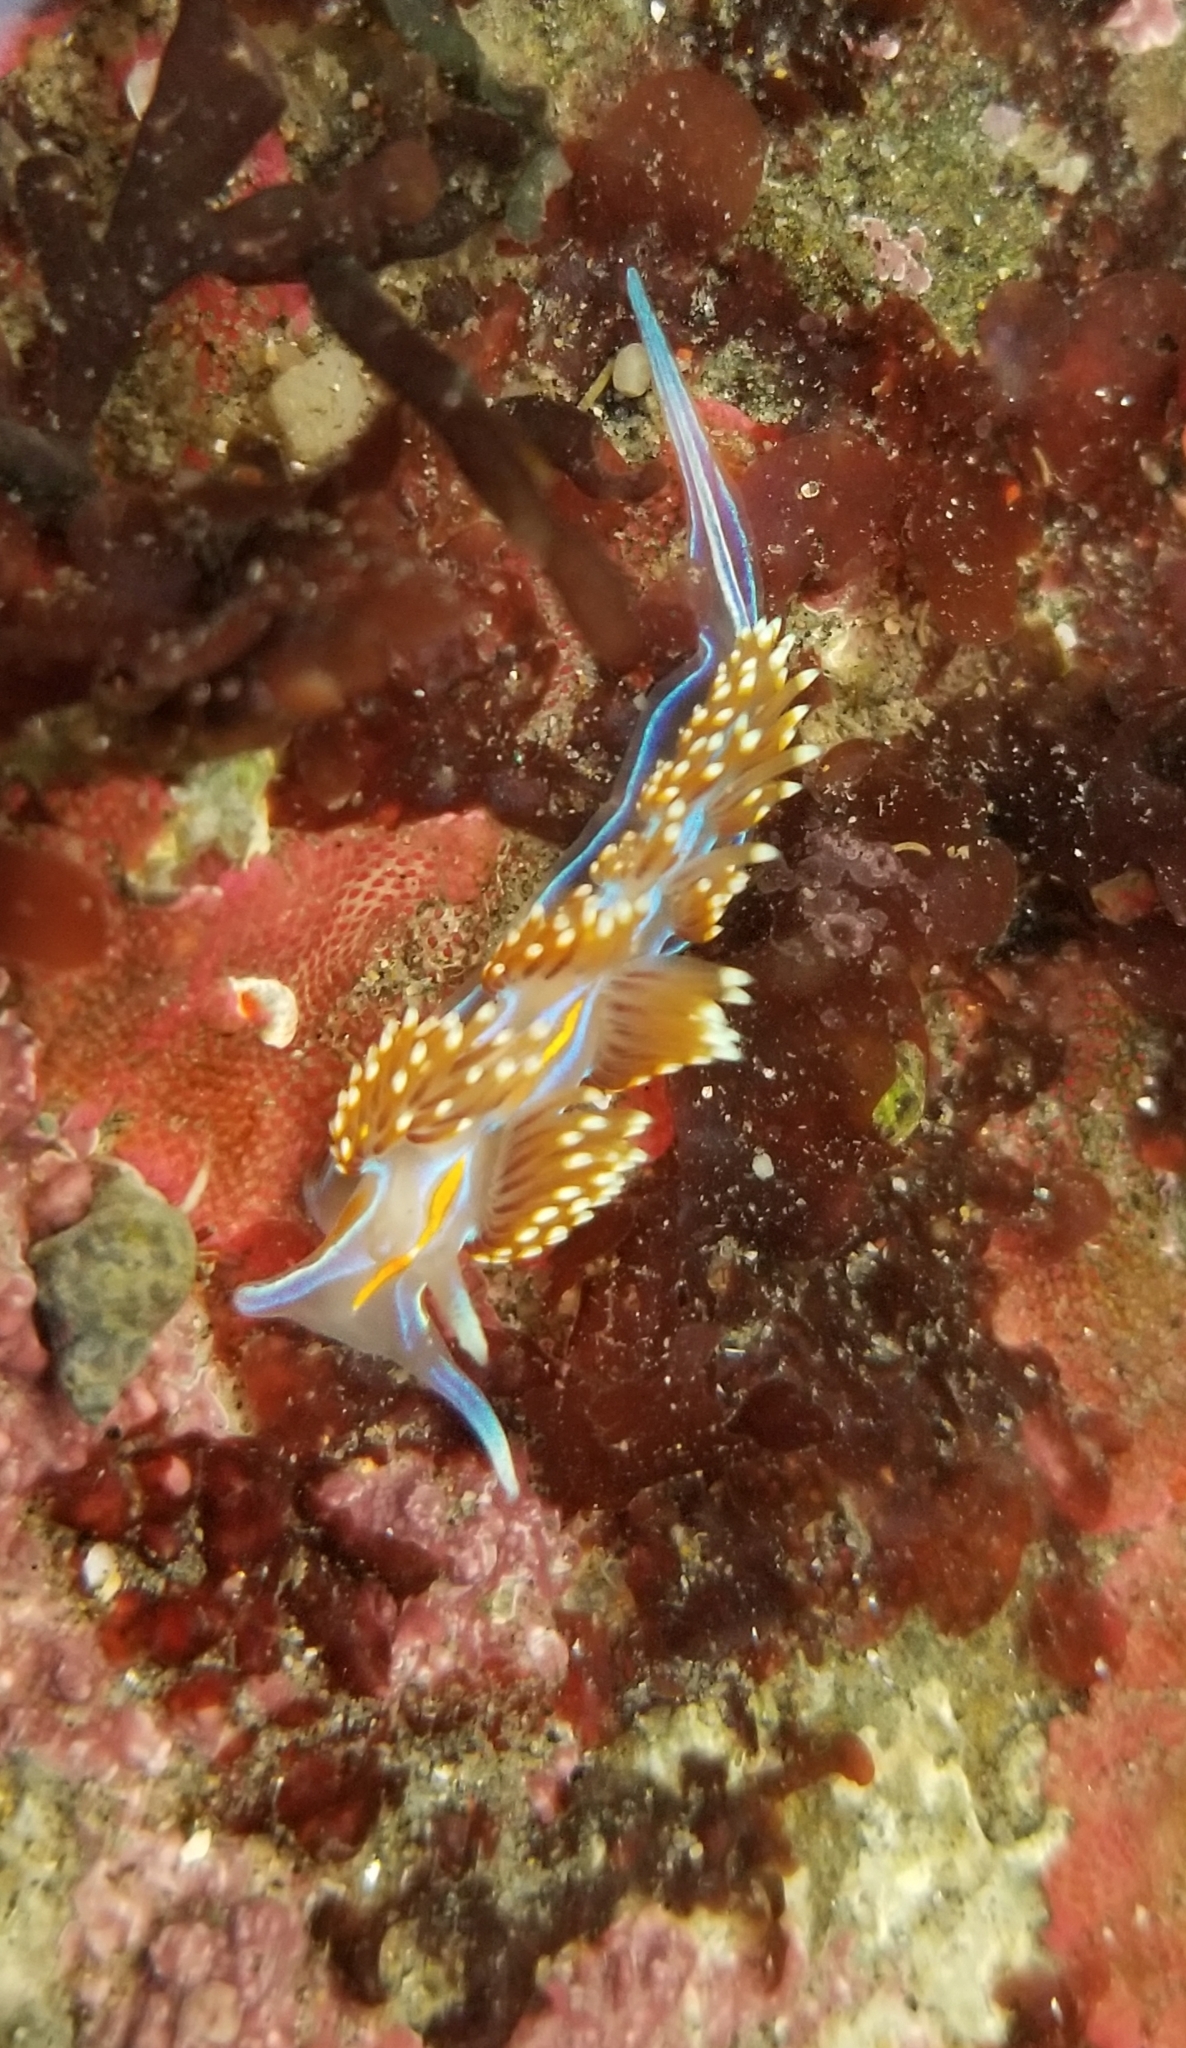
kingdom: Animalia
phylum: Mollusca
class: Gastropoda
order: Nudibranchia
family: Myrrhinidae
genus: Hermissenda
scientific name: Hermissenda opalescens
